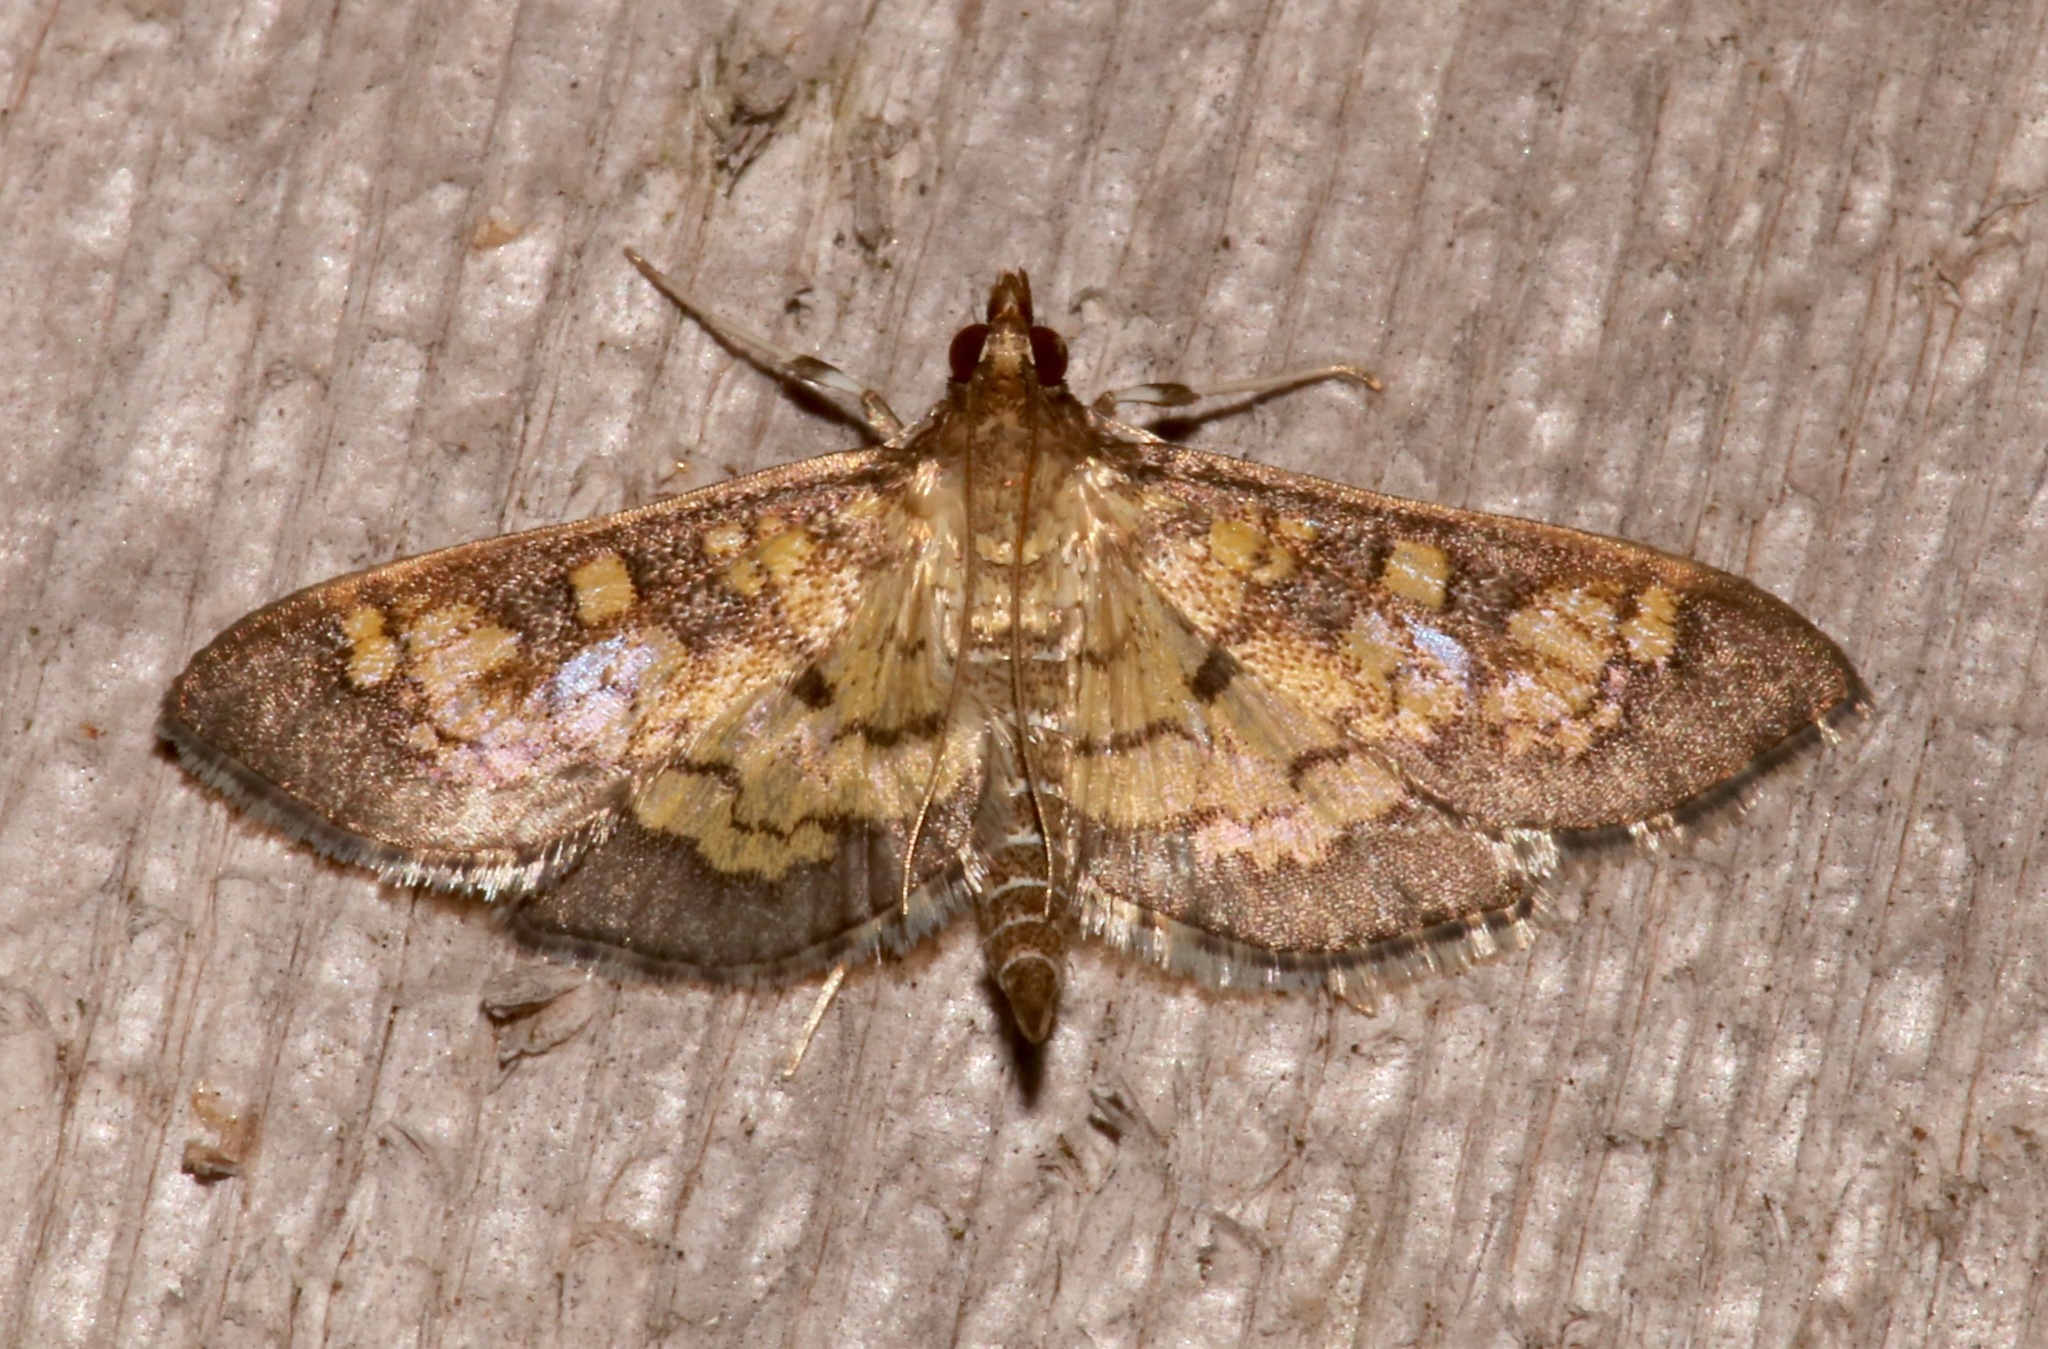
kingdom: Animalia
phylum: Arthropoda
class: Insecta
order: Lepidoptera
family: Crambidae
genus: Epipagis
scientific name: Epipagis adipaloides
